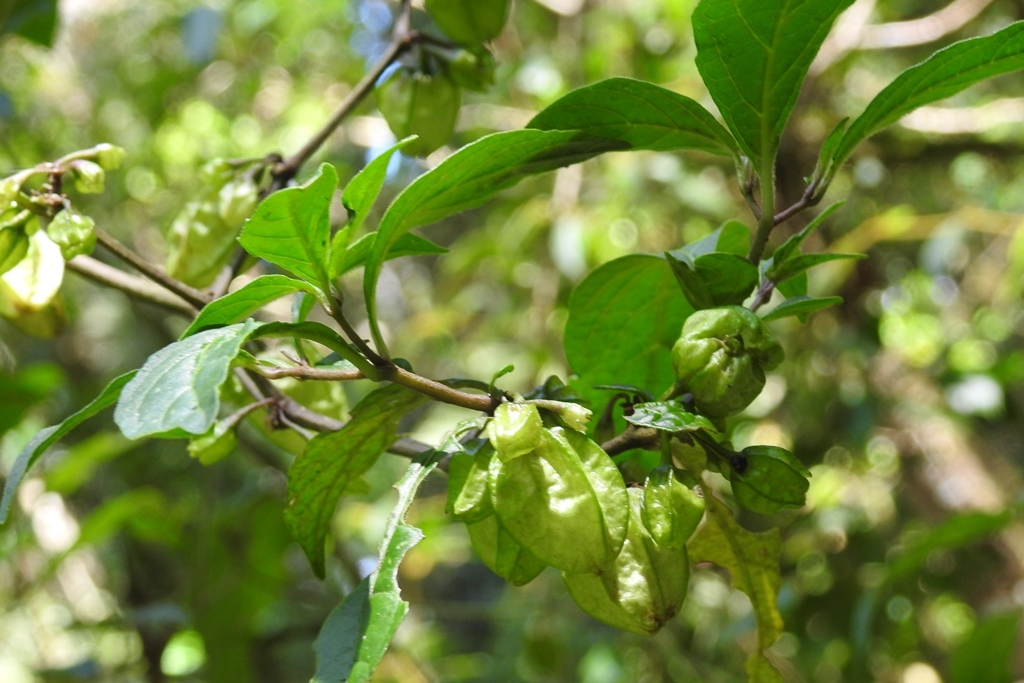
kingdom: Plantae
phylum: Tracheophyta
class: Magnoliopsida
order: Solanales
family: Solanaceae
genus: Tzeltalia
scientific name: Tzeltalia amphitricha
